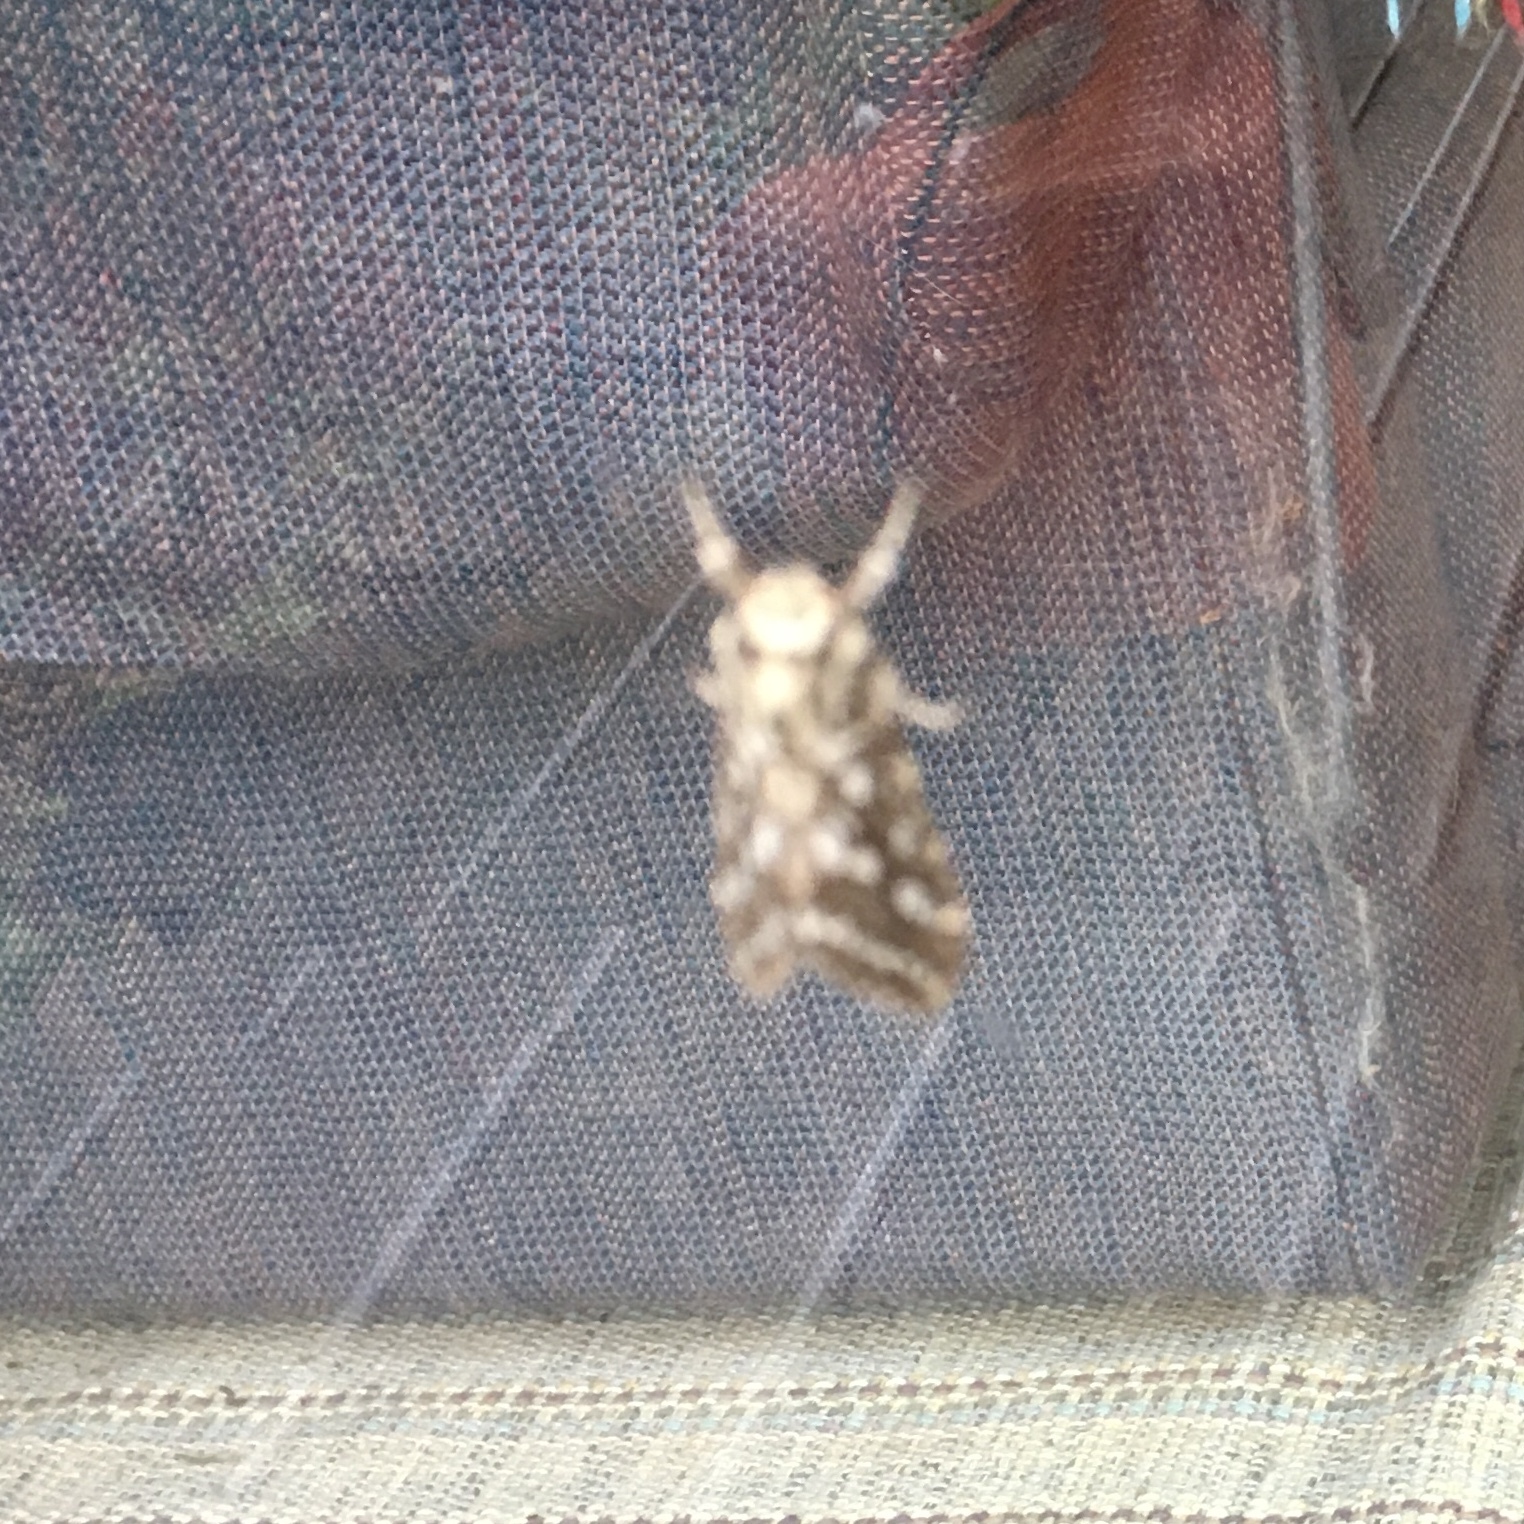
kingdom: Animalia
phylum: Arthropoda
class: Insecta
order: Lepidoptera
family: Erebidae
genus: Lophocampa
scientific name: Lophocampa argentata
